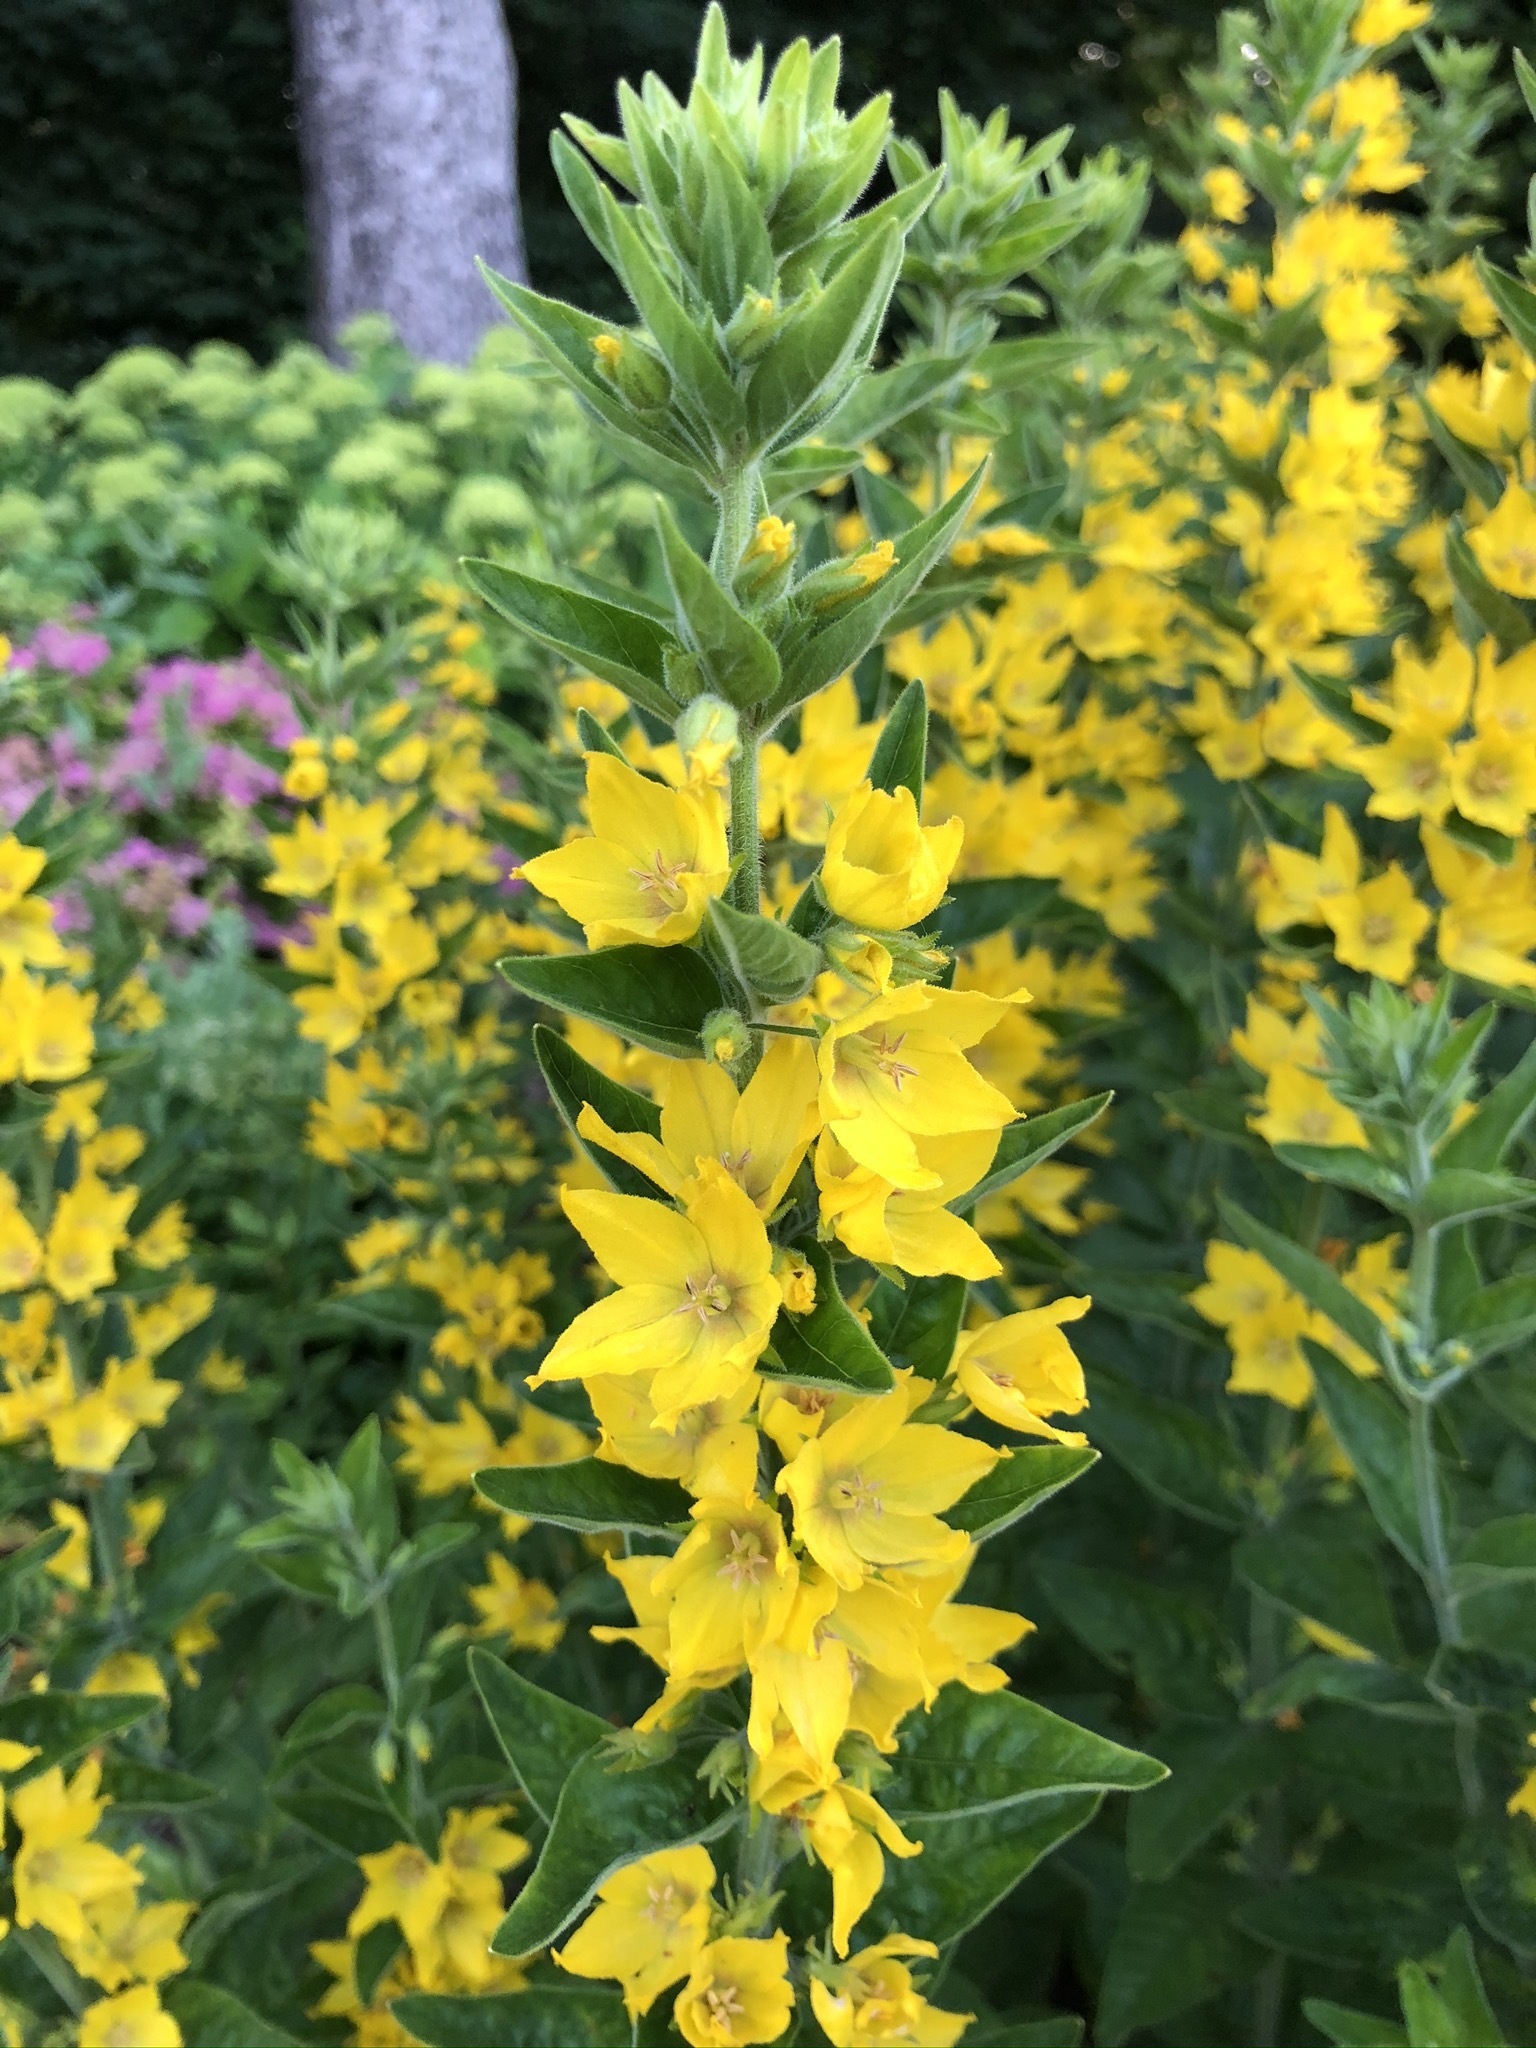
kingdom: Plantae
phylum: Tracheophyta
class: Magnoliopsida
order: Ericales
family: Primulaceae
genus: Lysimachia
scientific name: Lysimachia punctata
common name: Dotted loosestrife
